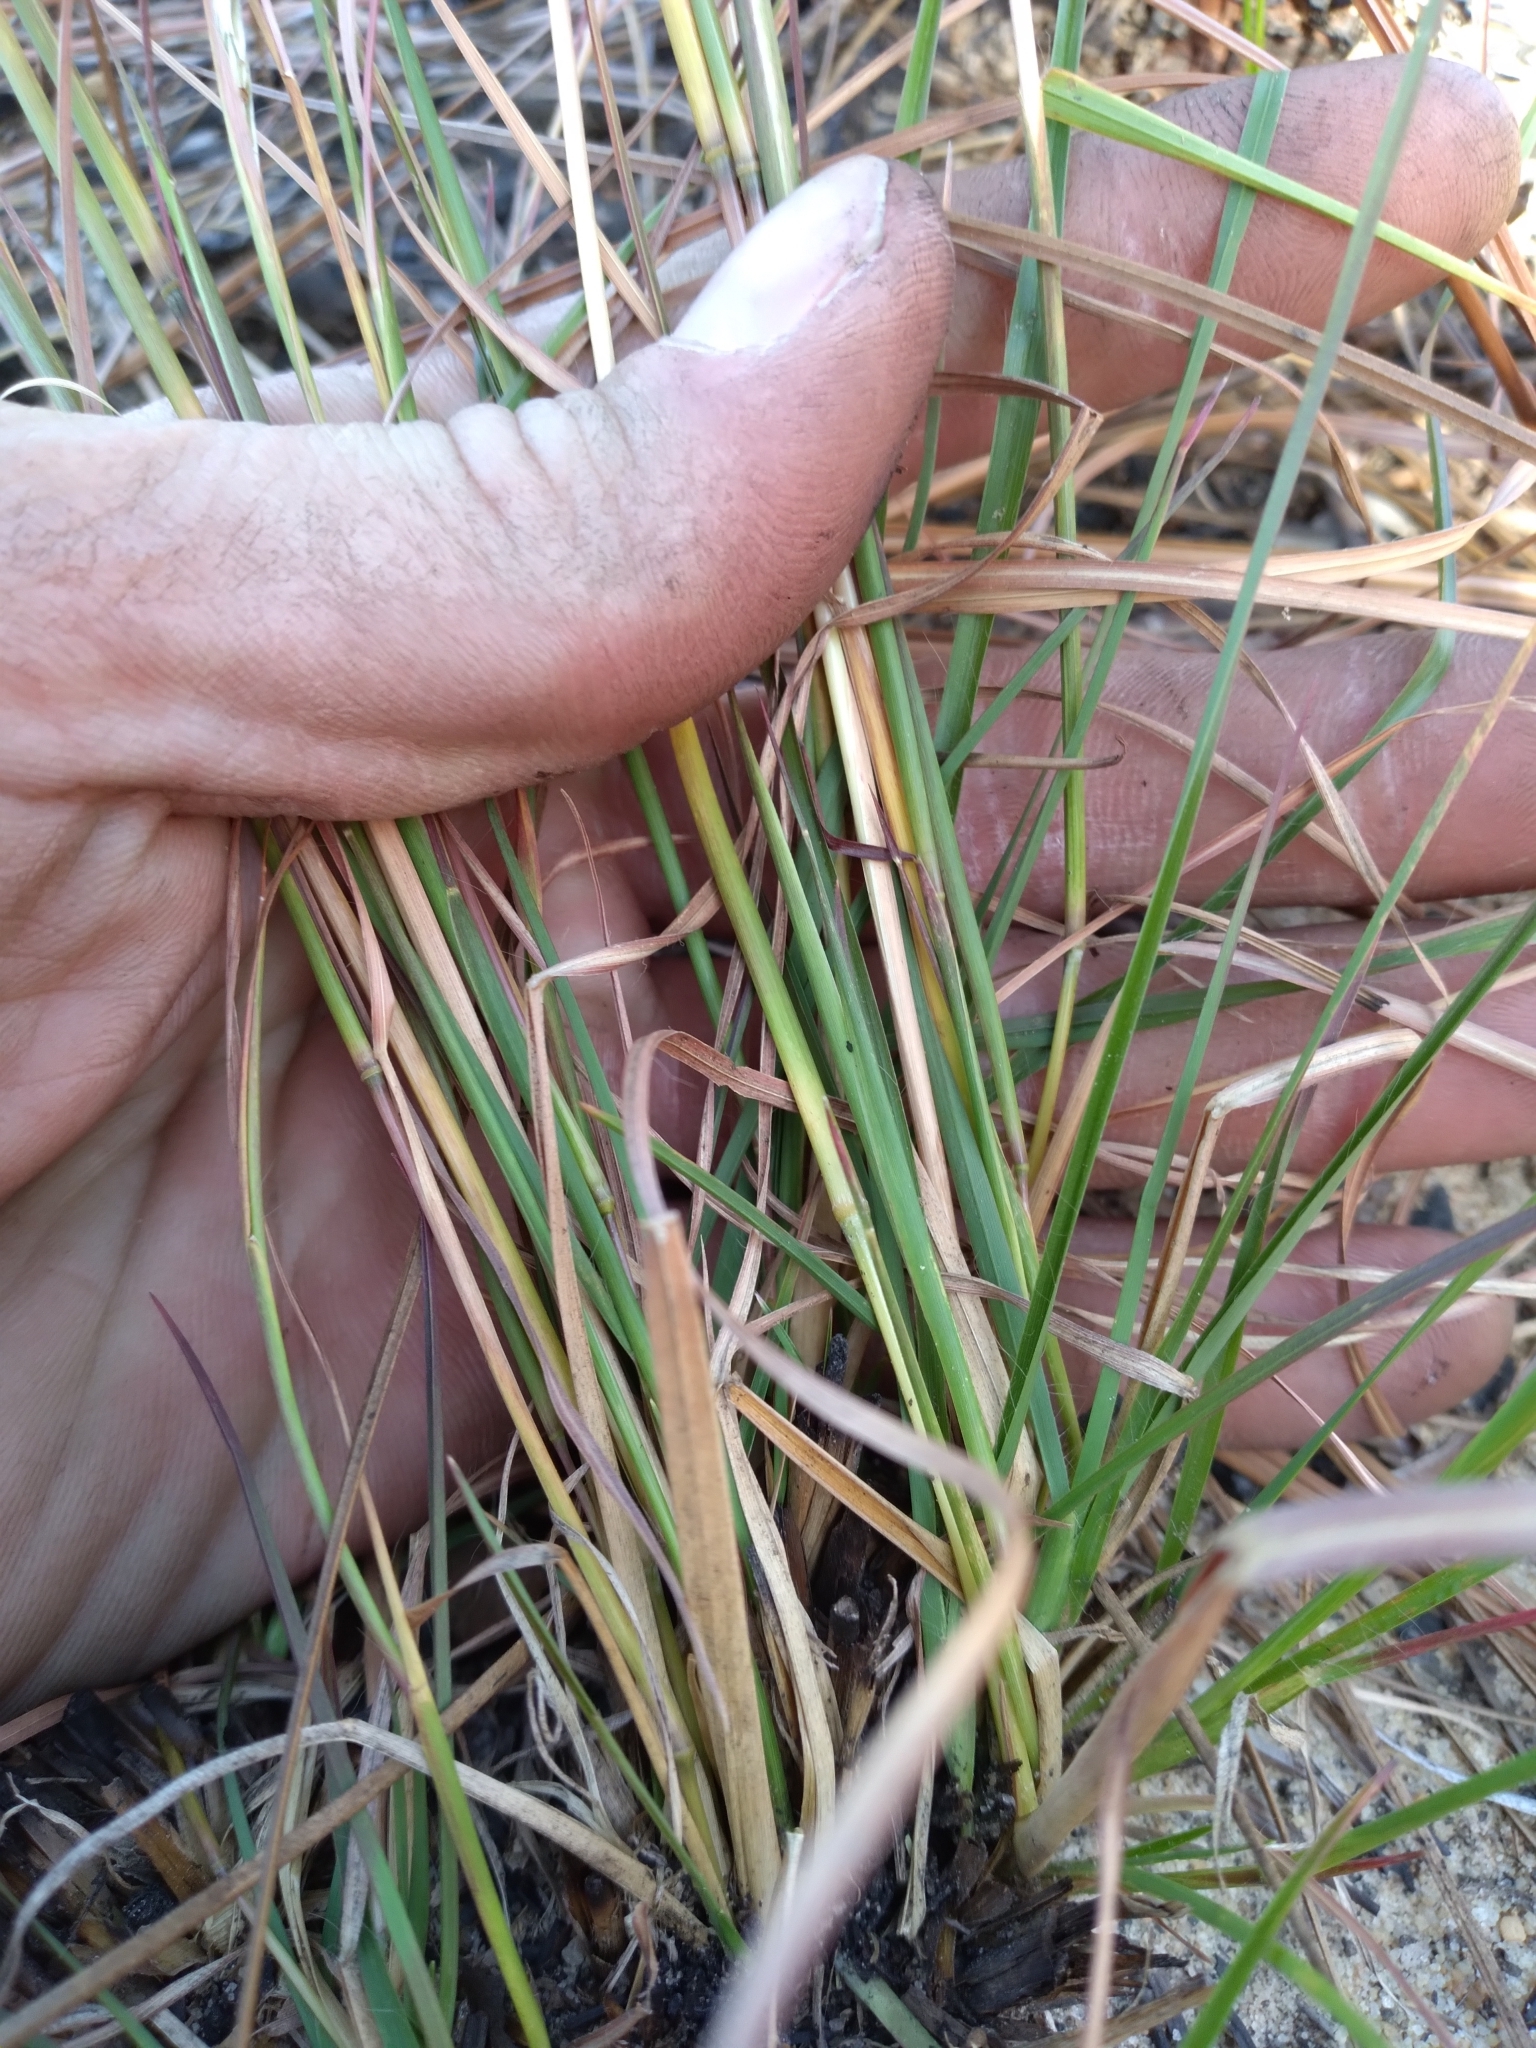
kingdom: Plantae
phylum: Tracheophyta
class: Liliopsida
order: Poales
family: Poaceae
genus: Andropogon
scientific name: Andropogon tracyi
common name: Tracy's bluestem
